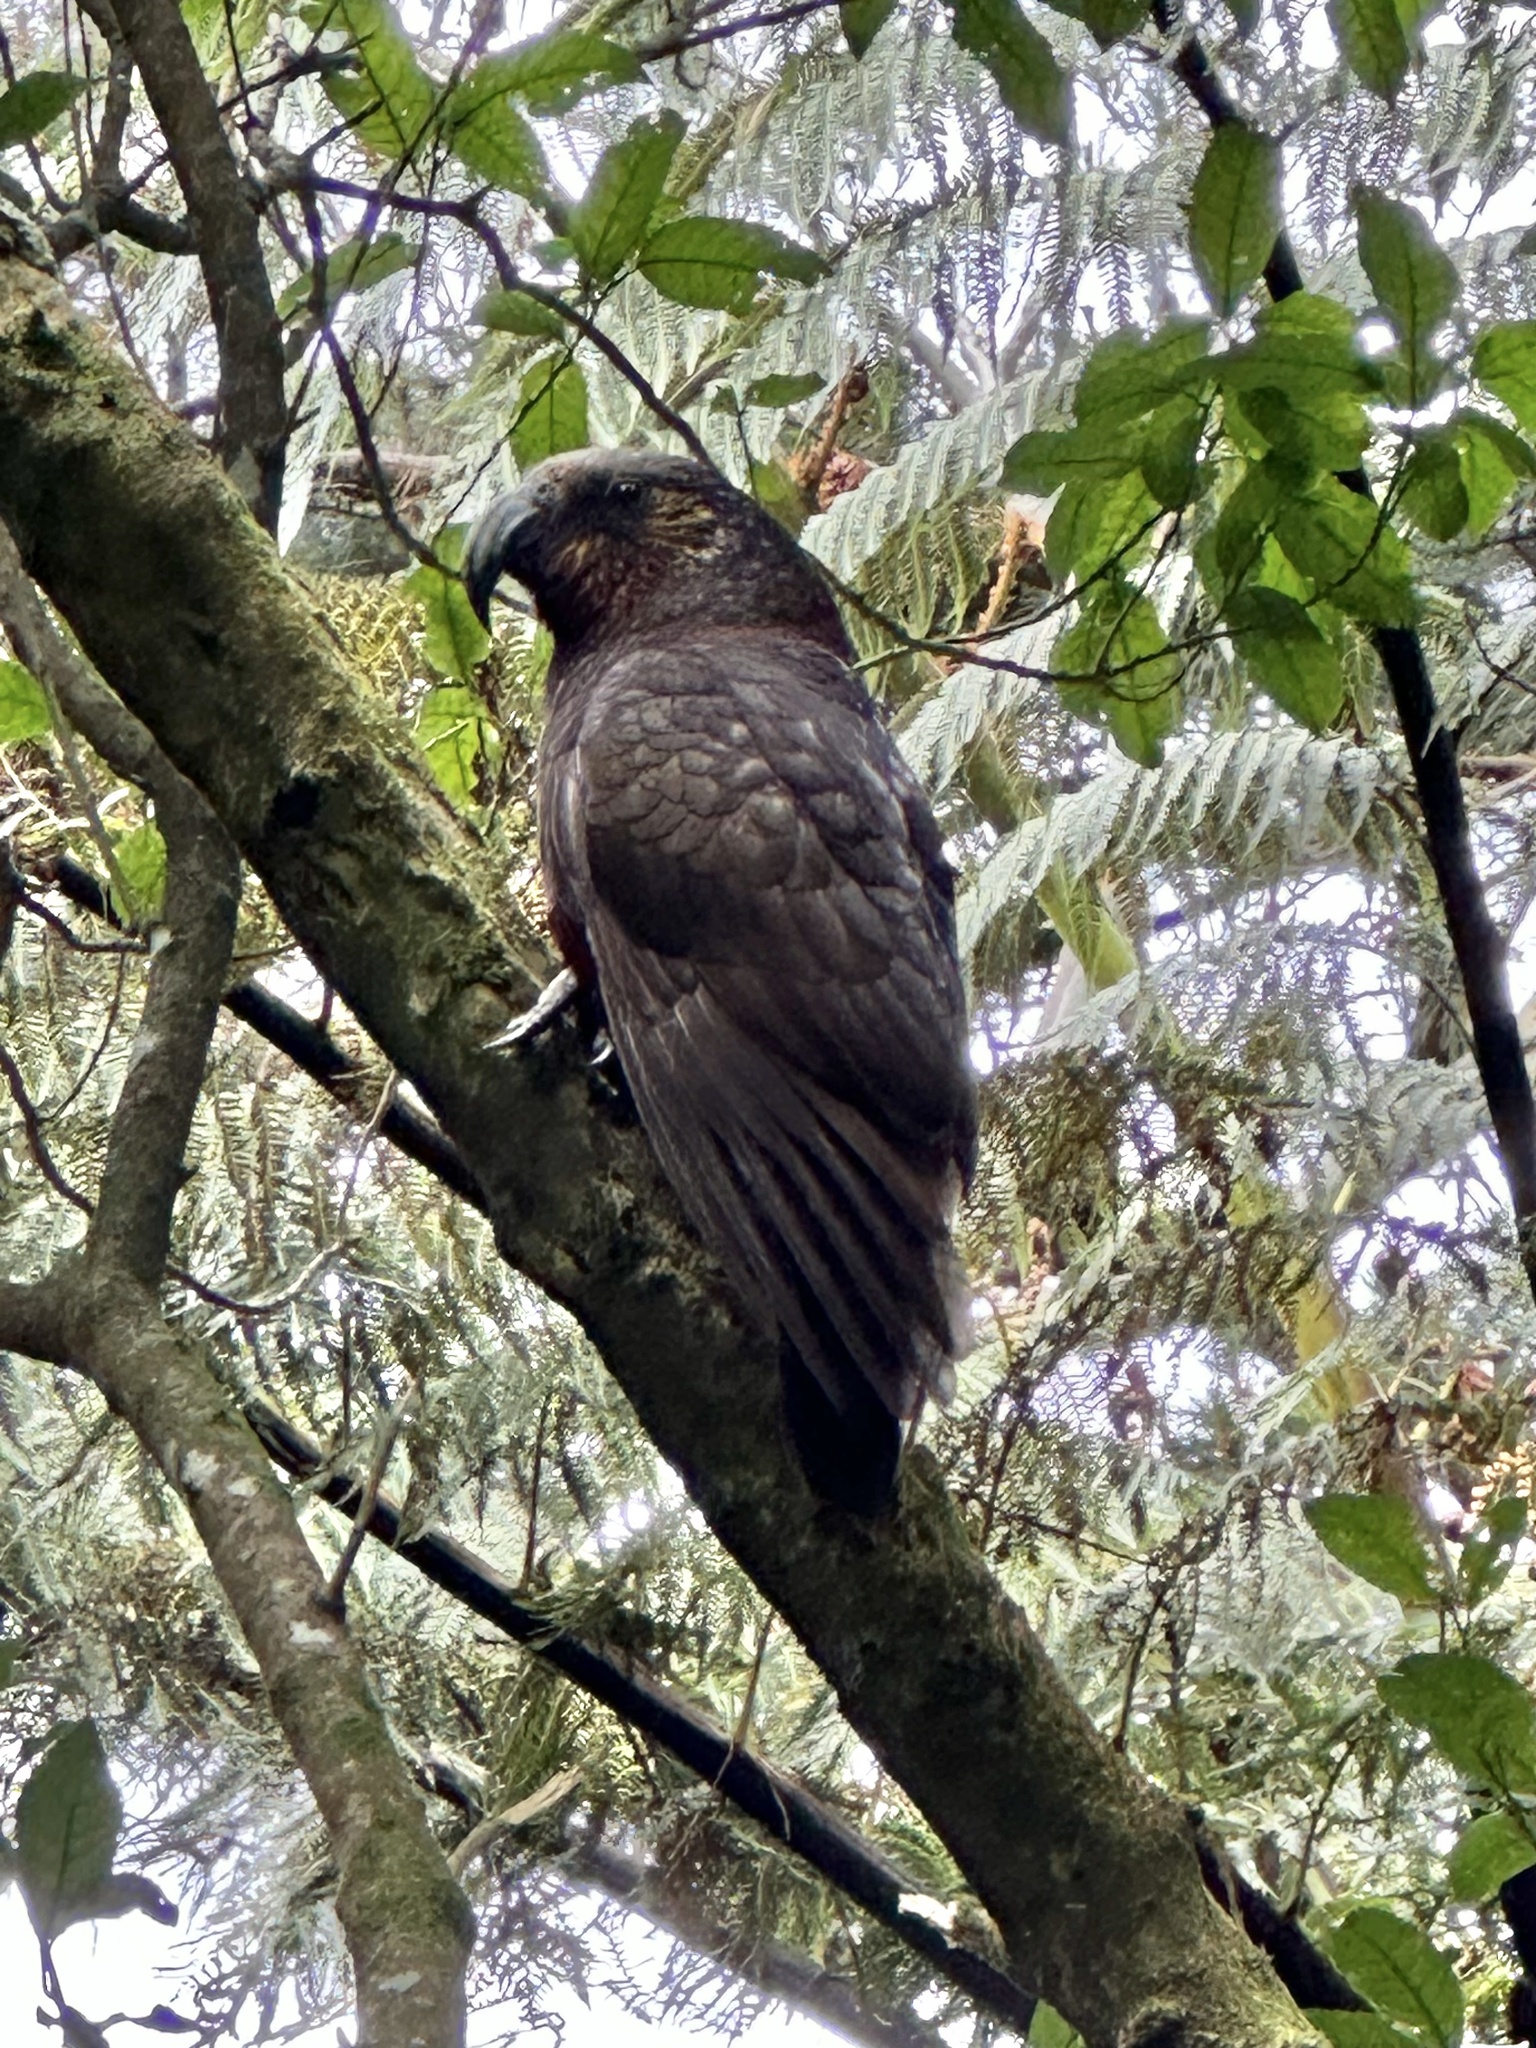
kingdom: Animalia
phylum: Chordata
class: Aves
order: Psittaciformes
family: Psittacidae
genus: Nestor
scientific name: Nestor meridionalis
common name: New zealand kaka
